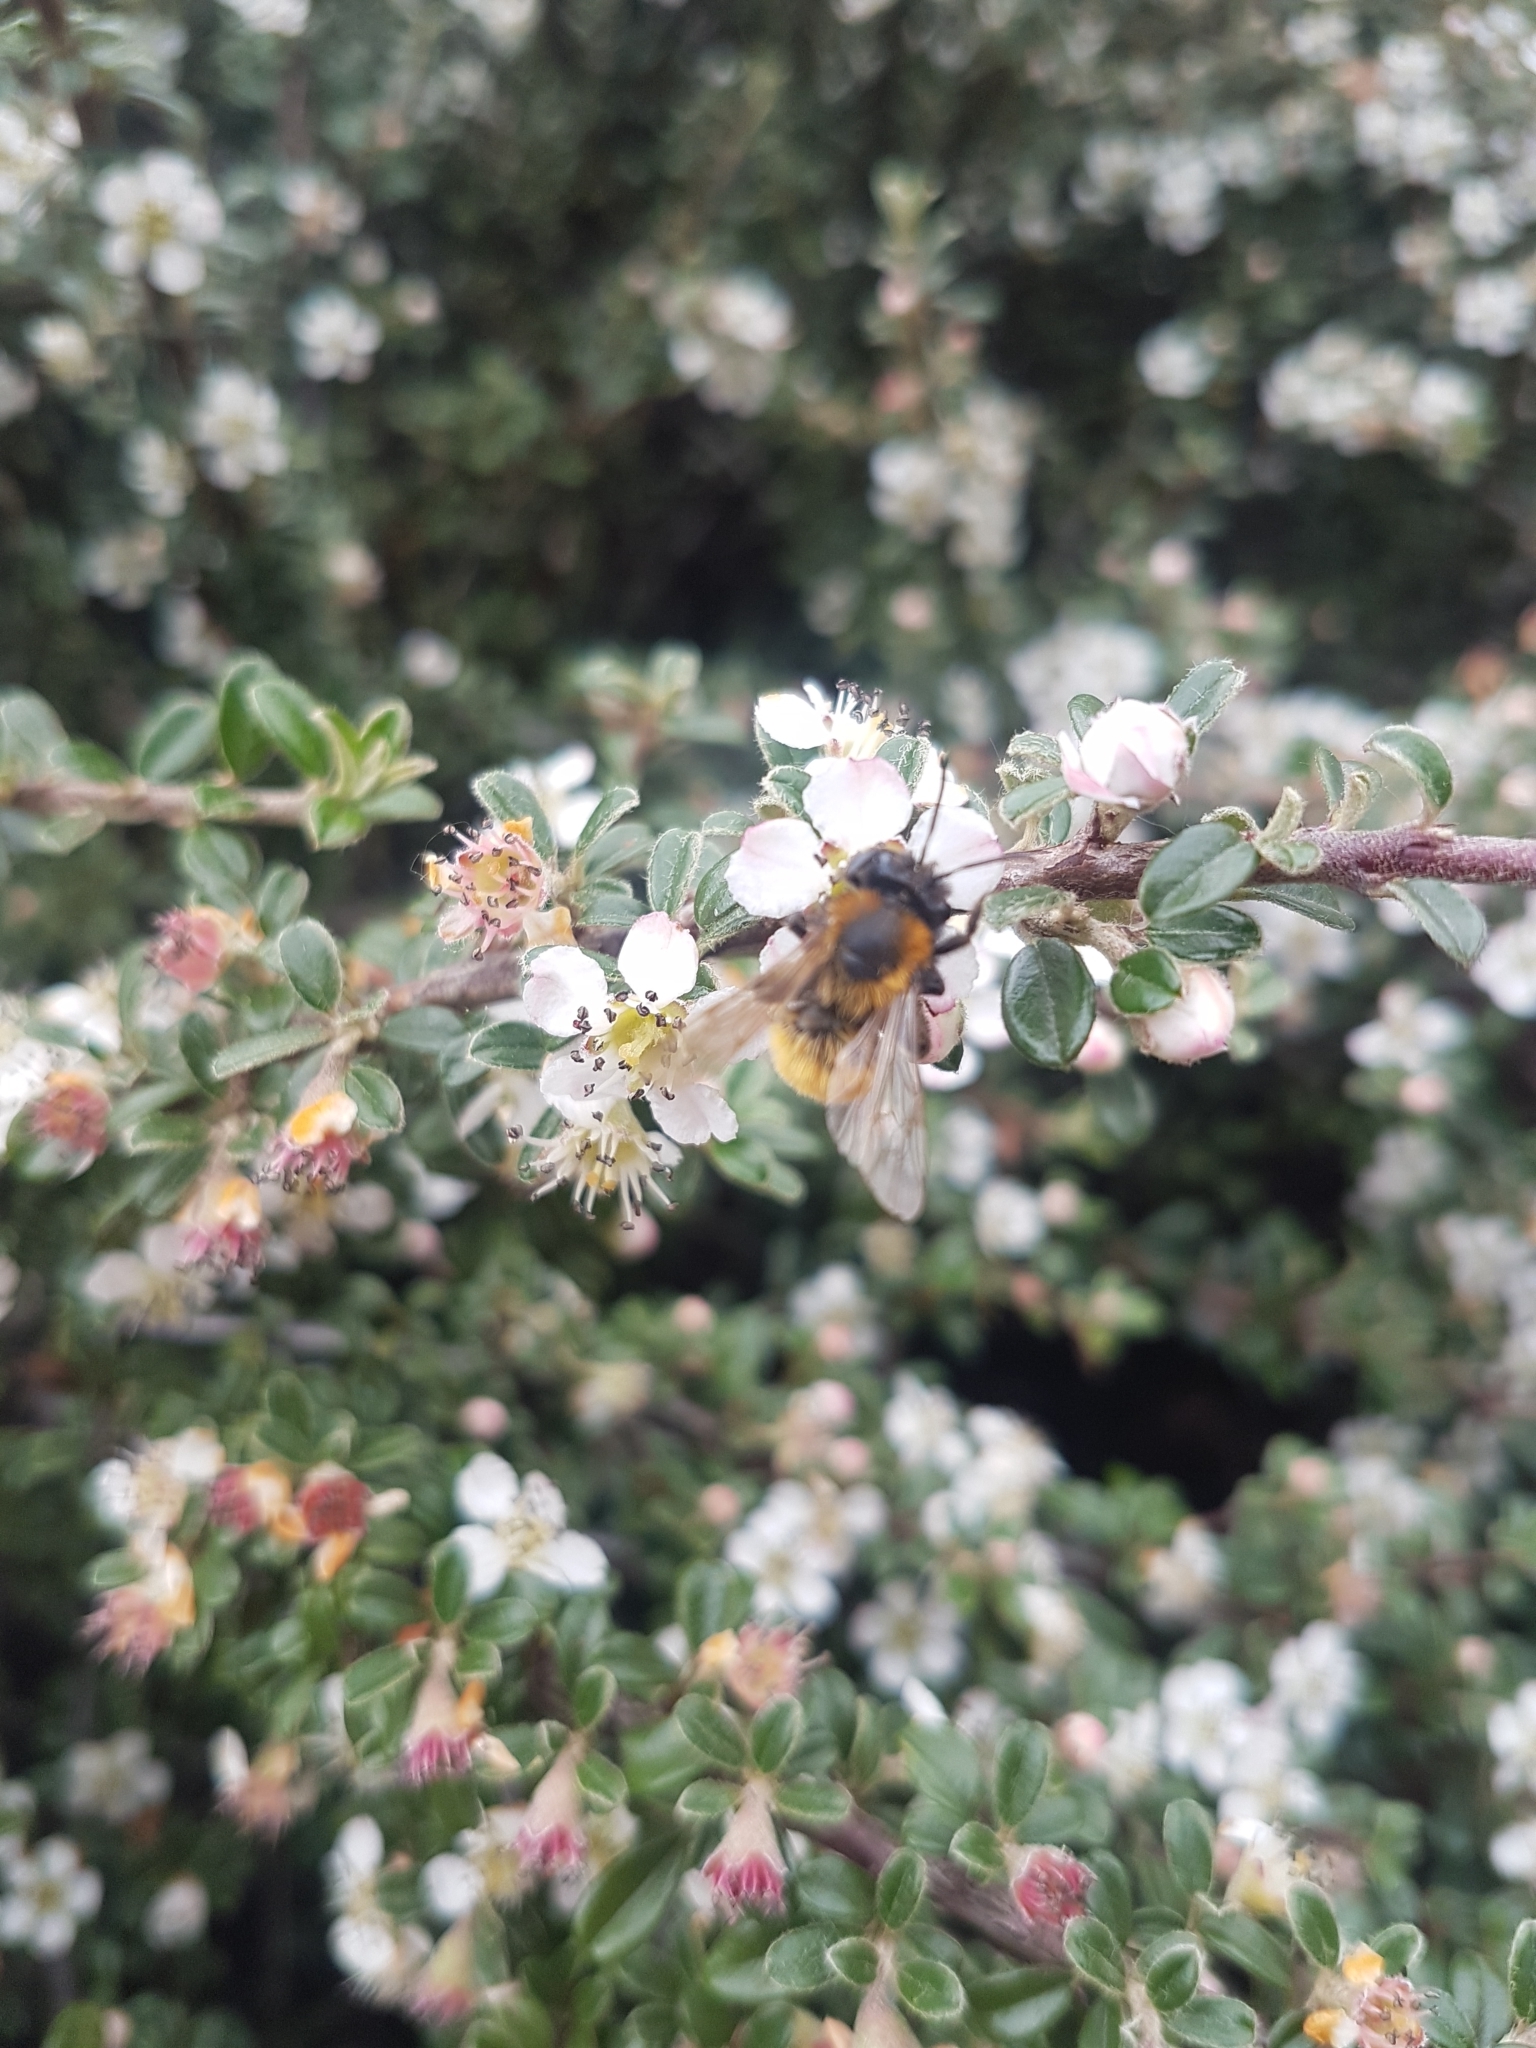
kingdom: Animalia
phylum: Arthropoda
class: Insecta
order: Hymenoptera
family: Andrenidae
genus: Andrena
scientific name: Andrena fulva
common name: Tawny mining bee
